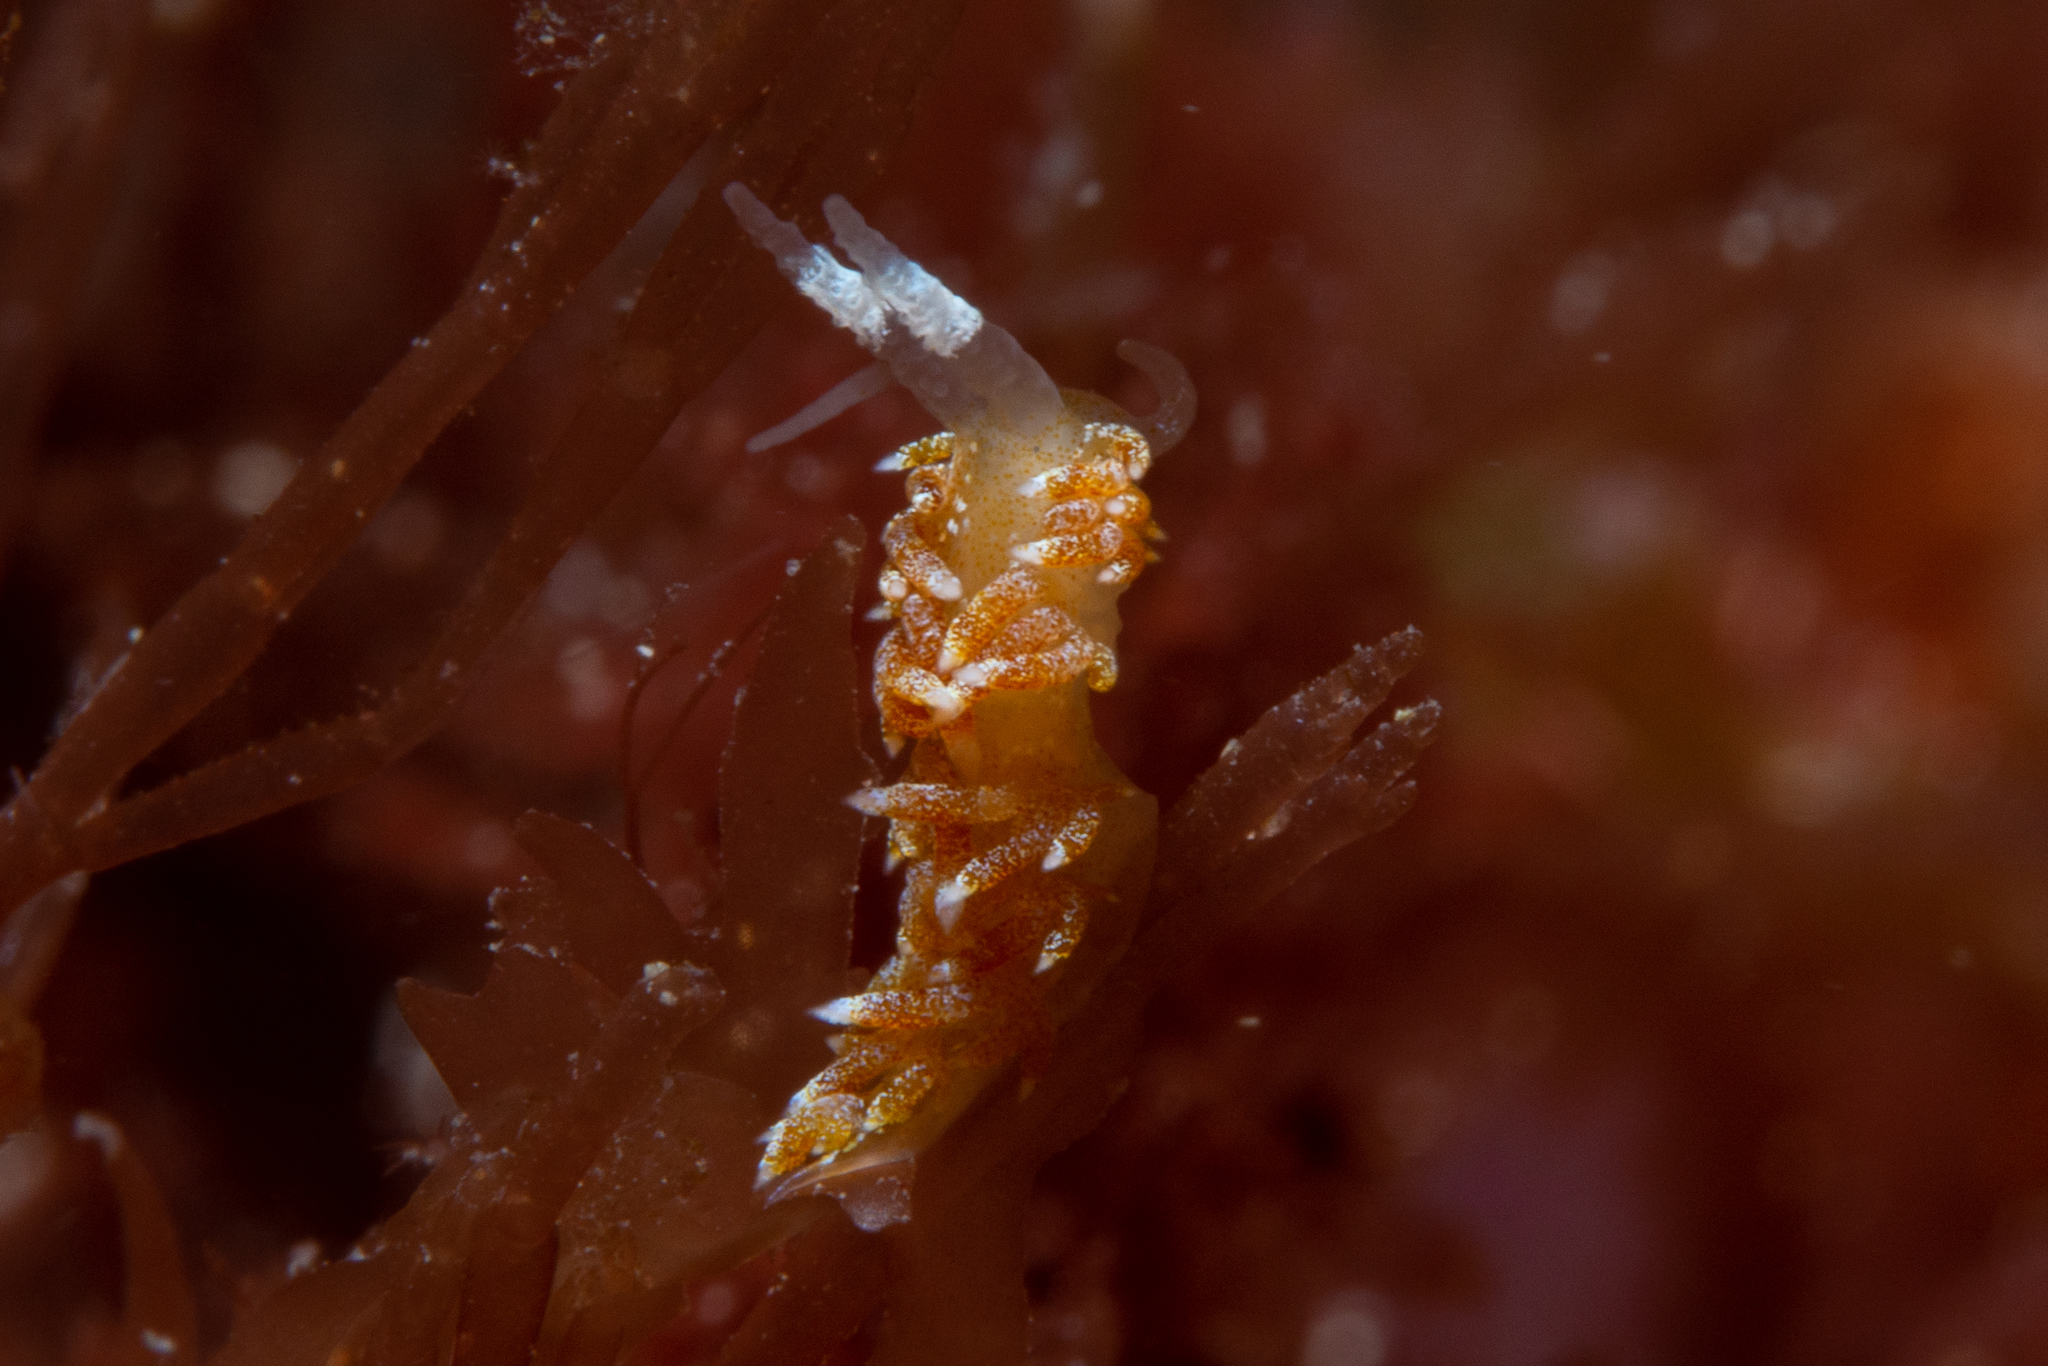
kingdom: Animalia
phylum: Mollusca
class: Gastropoda
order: Nudibranchia
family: Apataidae
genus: Tularia
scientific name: Tularia bractea
